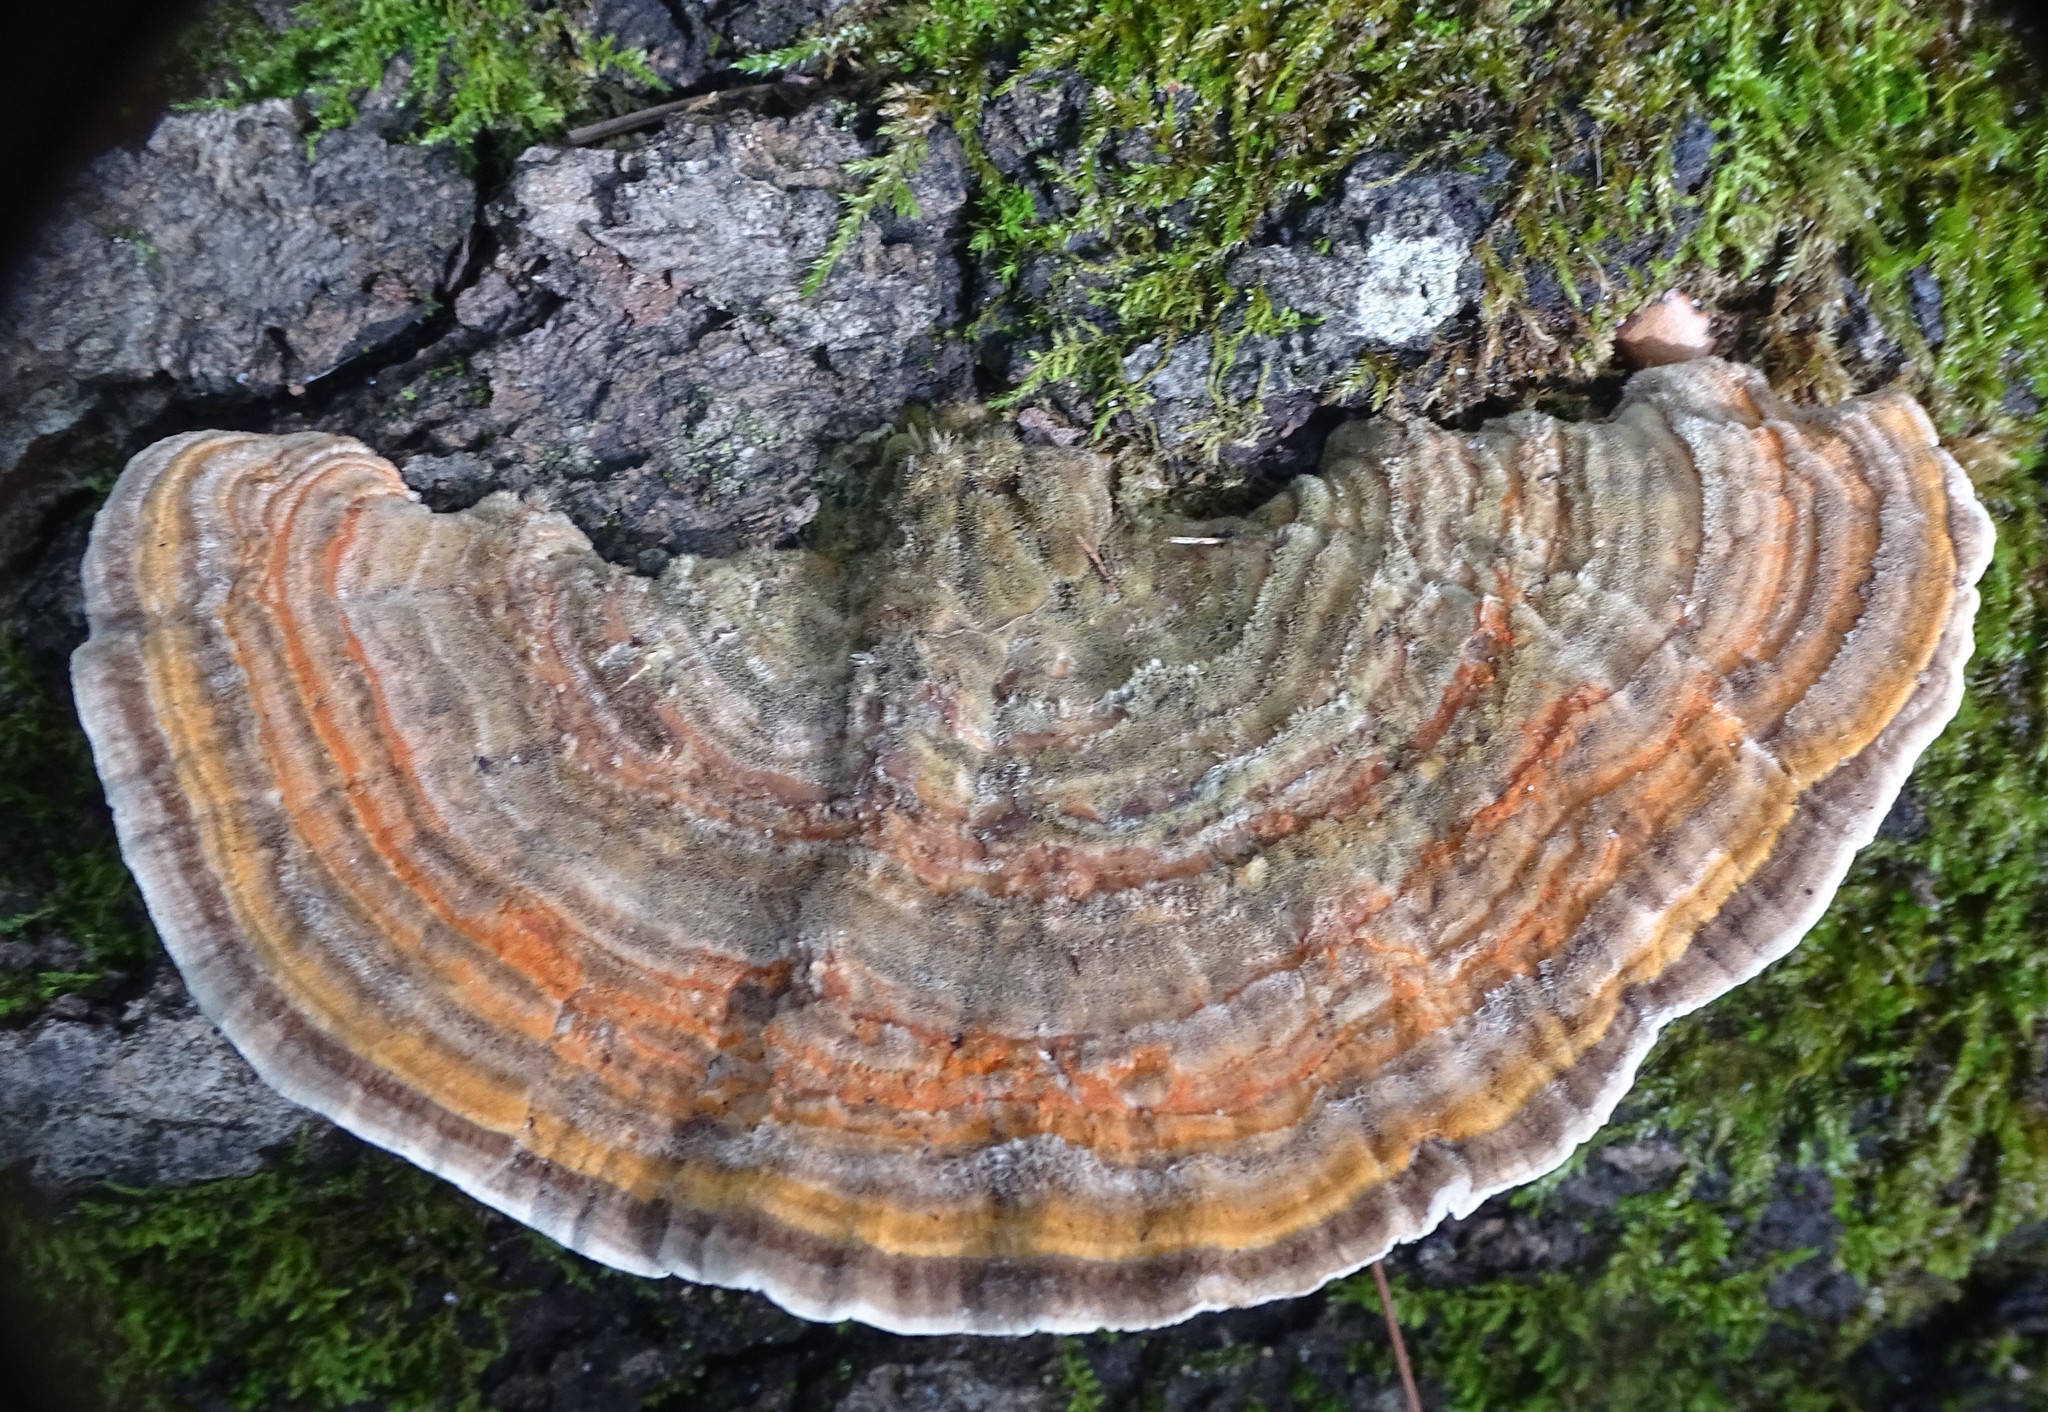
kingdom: Fungi
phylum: Basidiomycota
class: Agaricomycetes
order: Polyporales
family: Polyporaceae
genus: Lenzites
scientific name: Lenzites betulinus
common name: Birch mazegill
